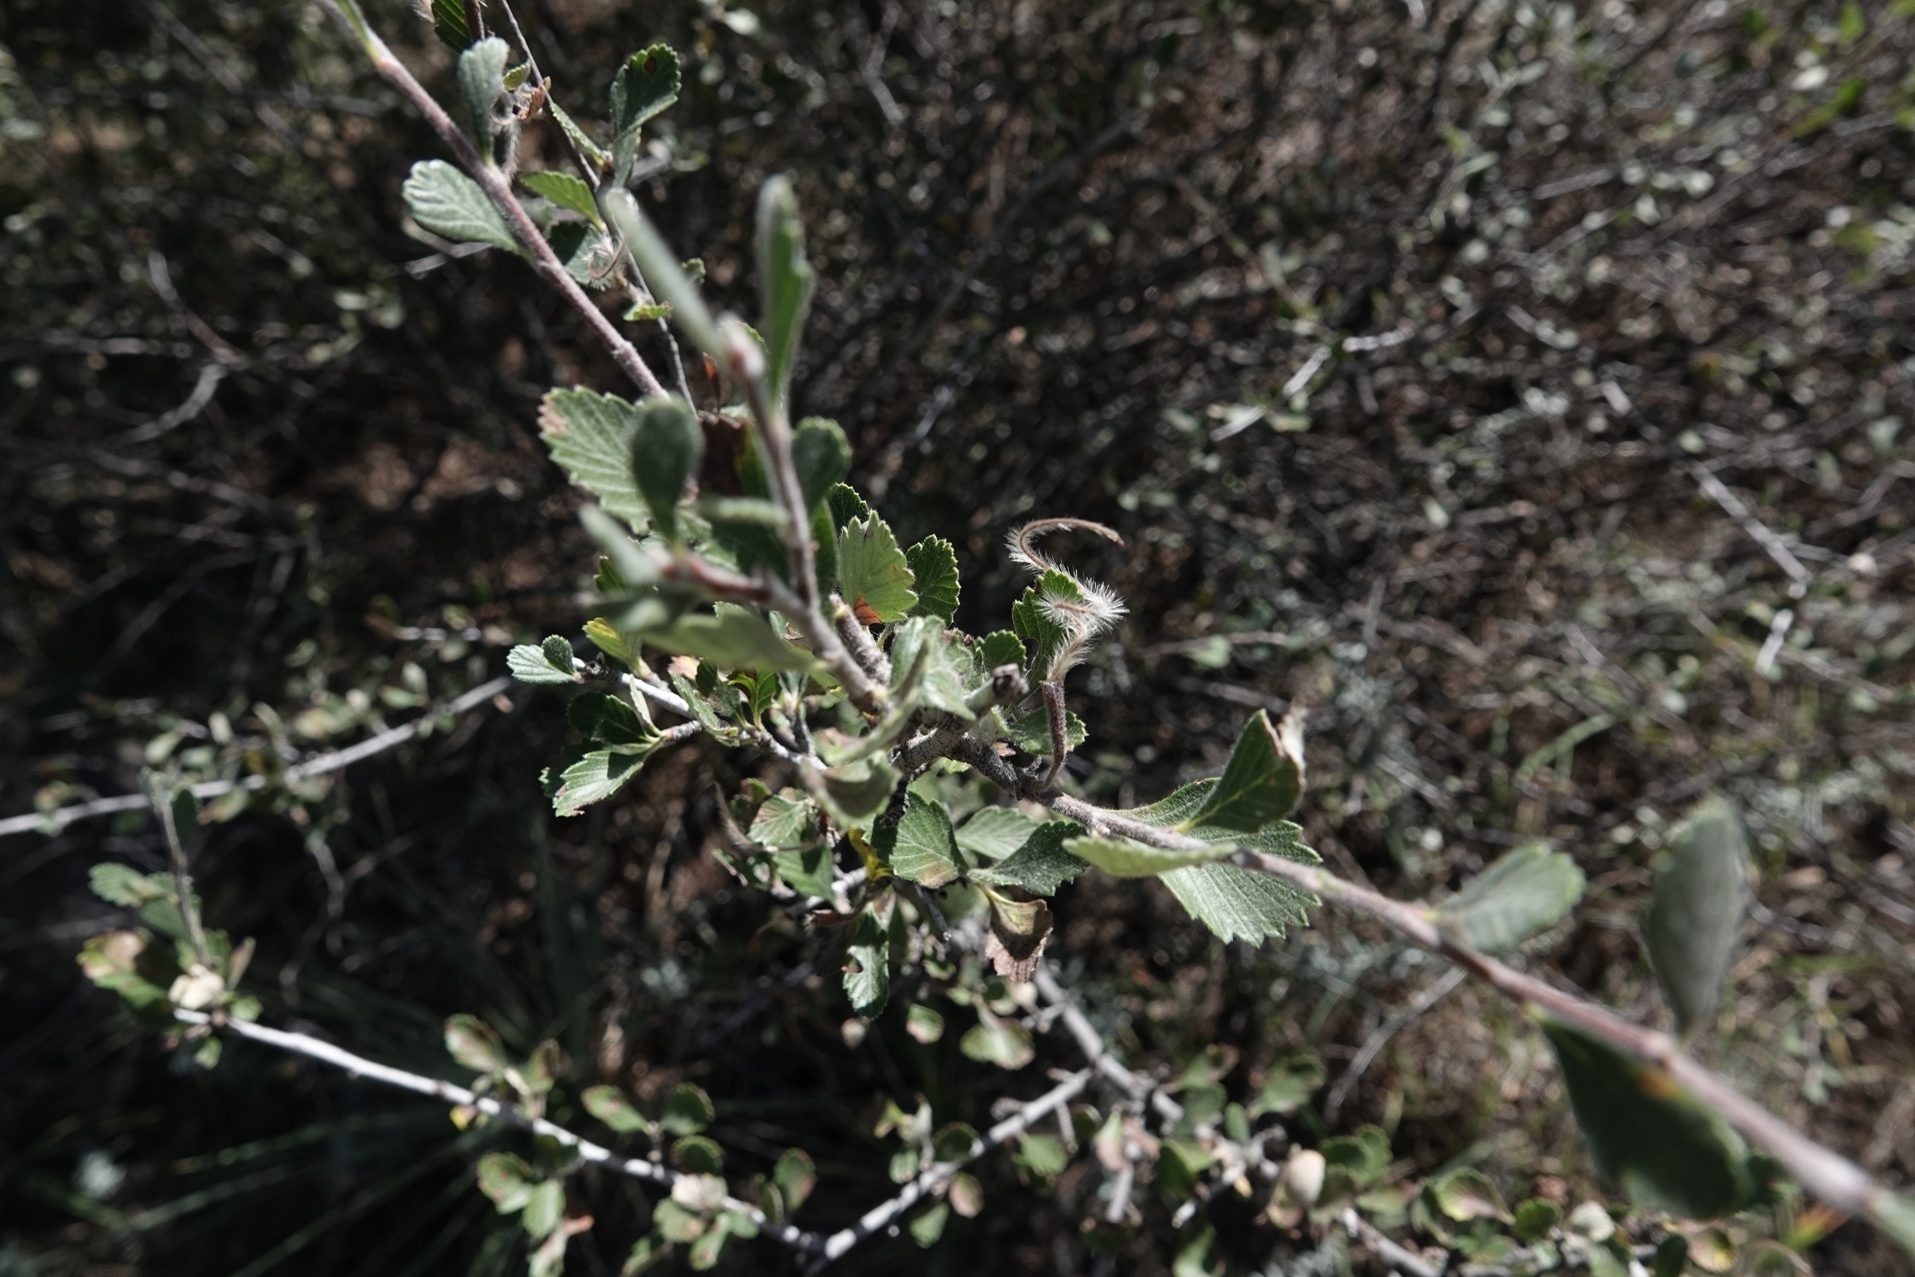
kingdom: Plantae
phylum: Tracheophyta
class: Magnoliopsida
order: Rosales
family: Rosaceae
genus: Cercocarpus
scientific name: Cercocarpus montanus
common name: Alder-leaf cercocarpus
